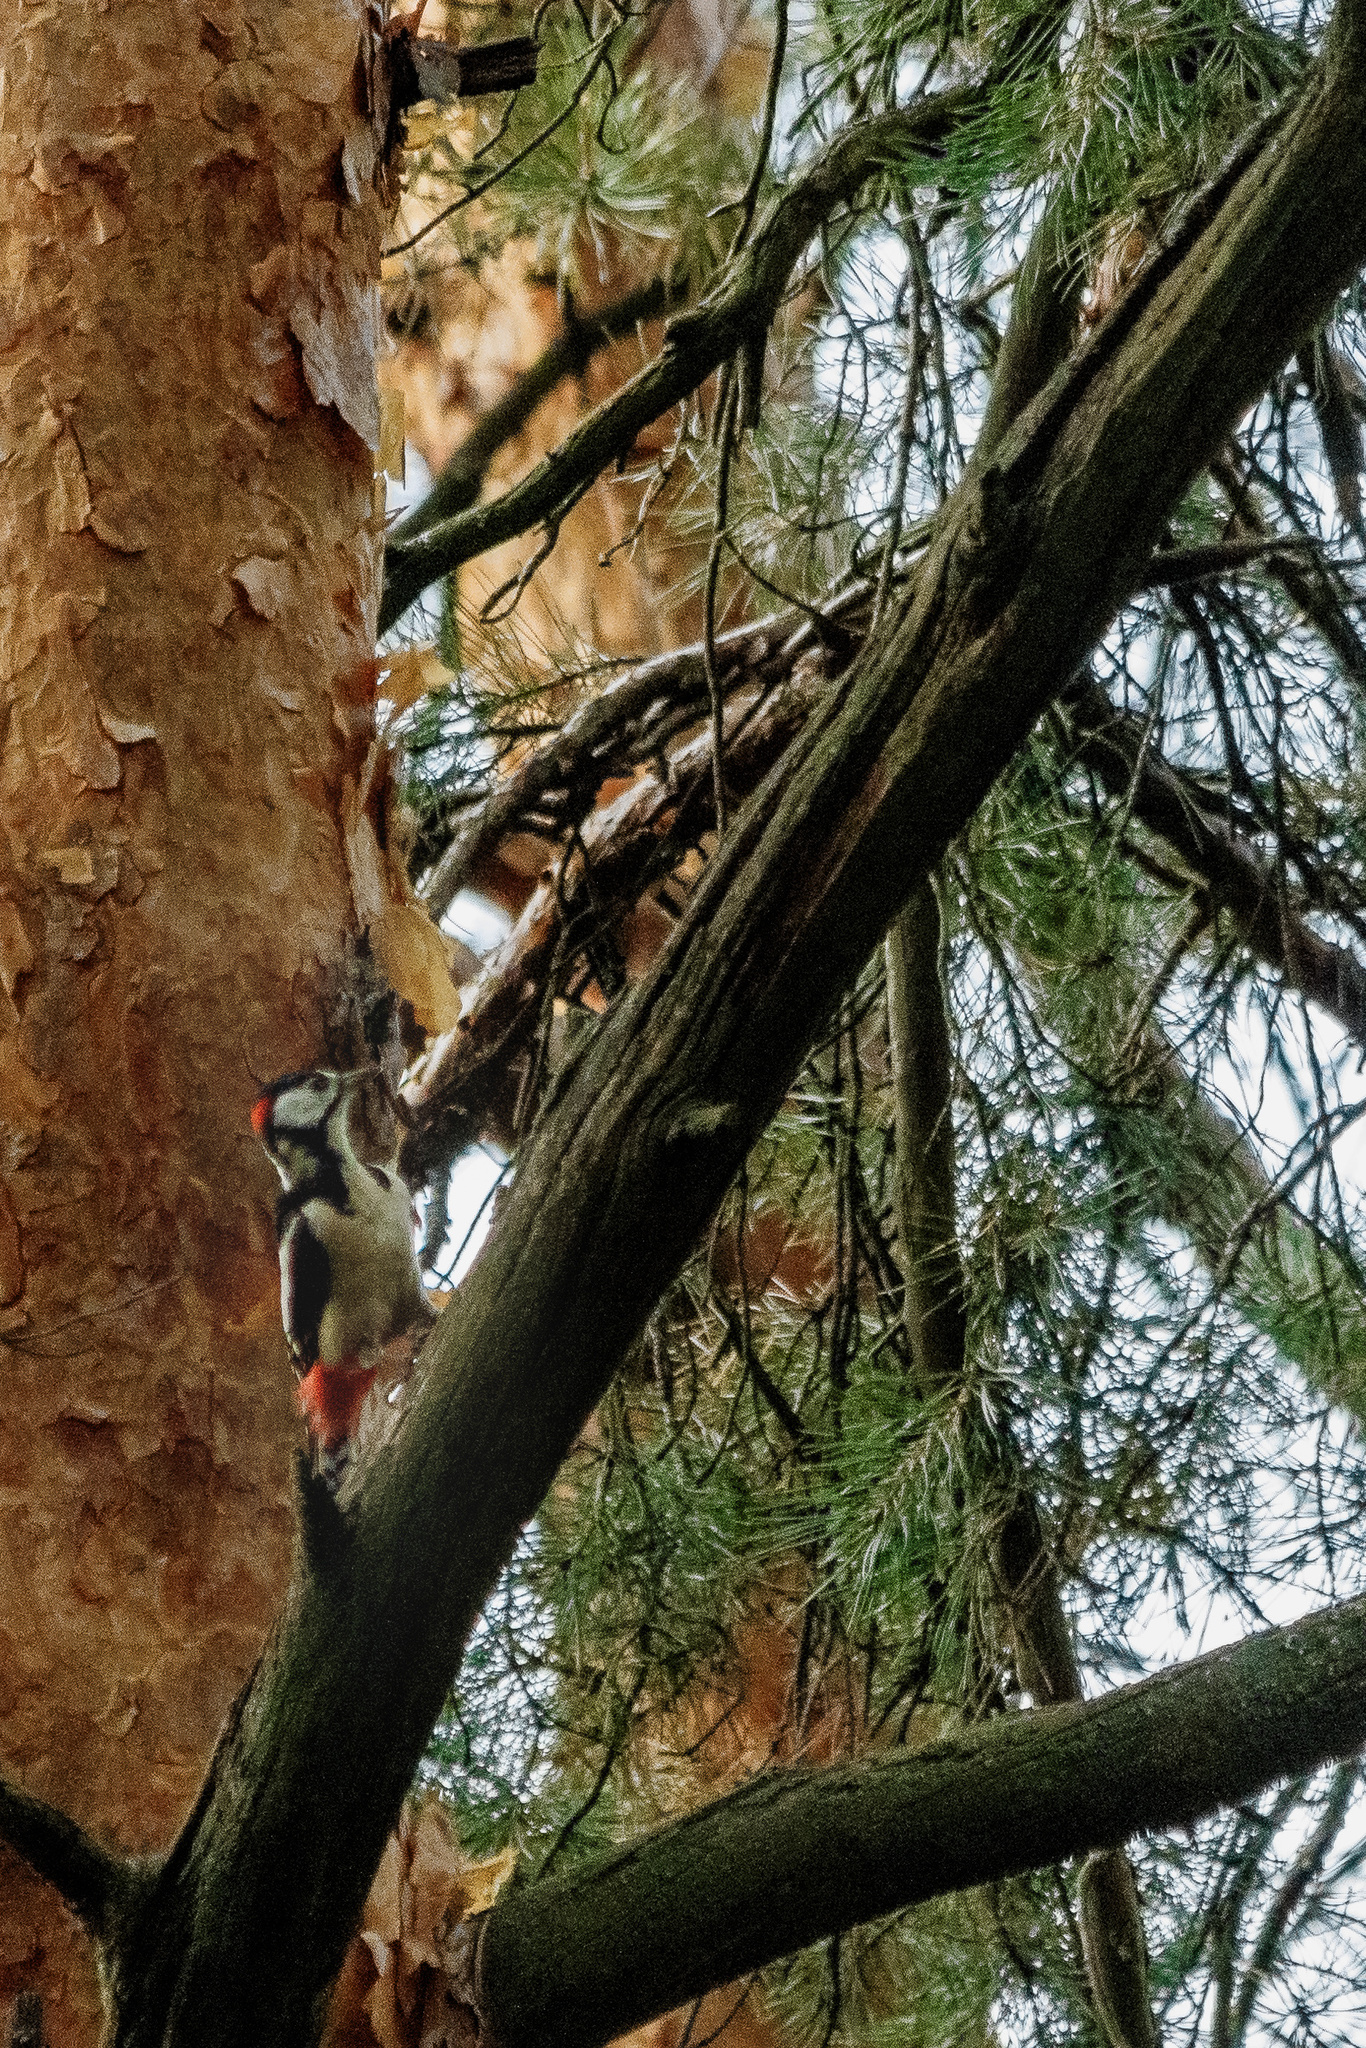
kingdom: Animalia
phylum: Chordata
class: Aves
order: Piciformes
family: Picidae
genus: Dendrocopos
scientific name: Dendrocopos major
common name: Great spotted woodpecker
